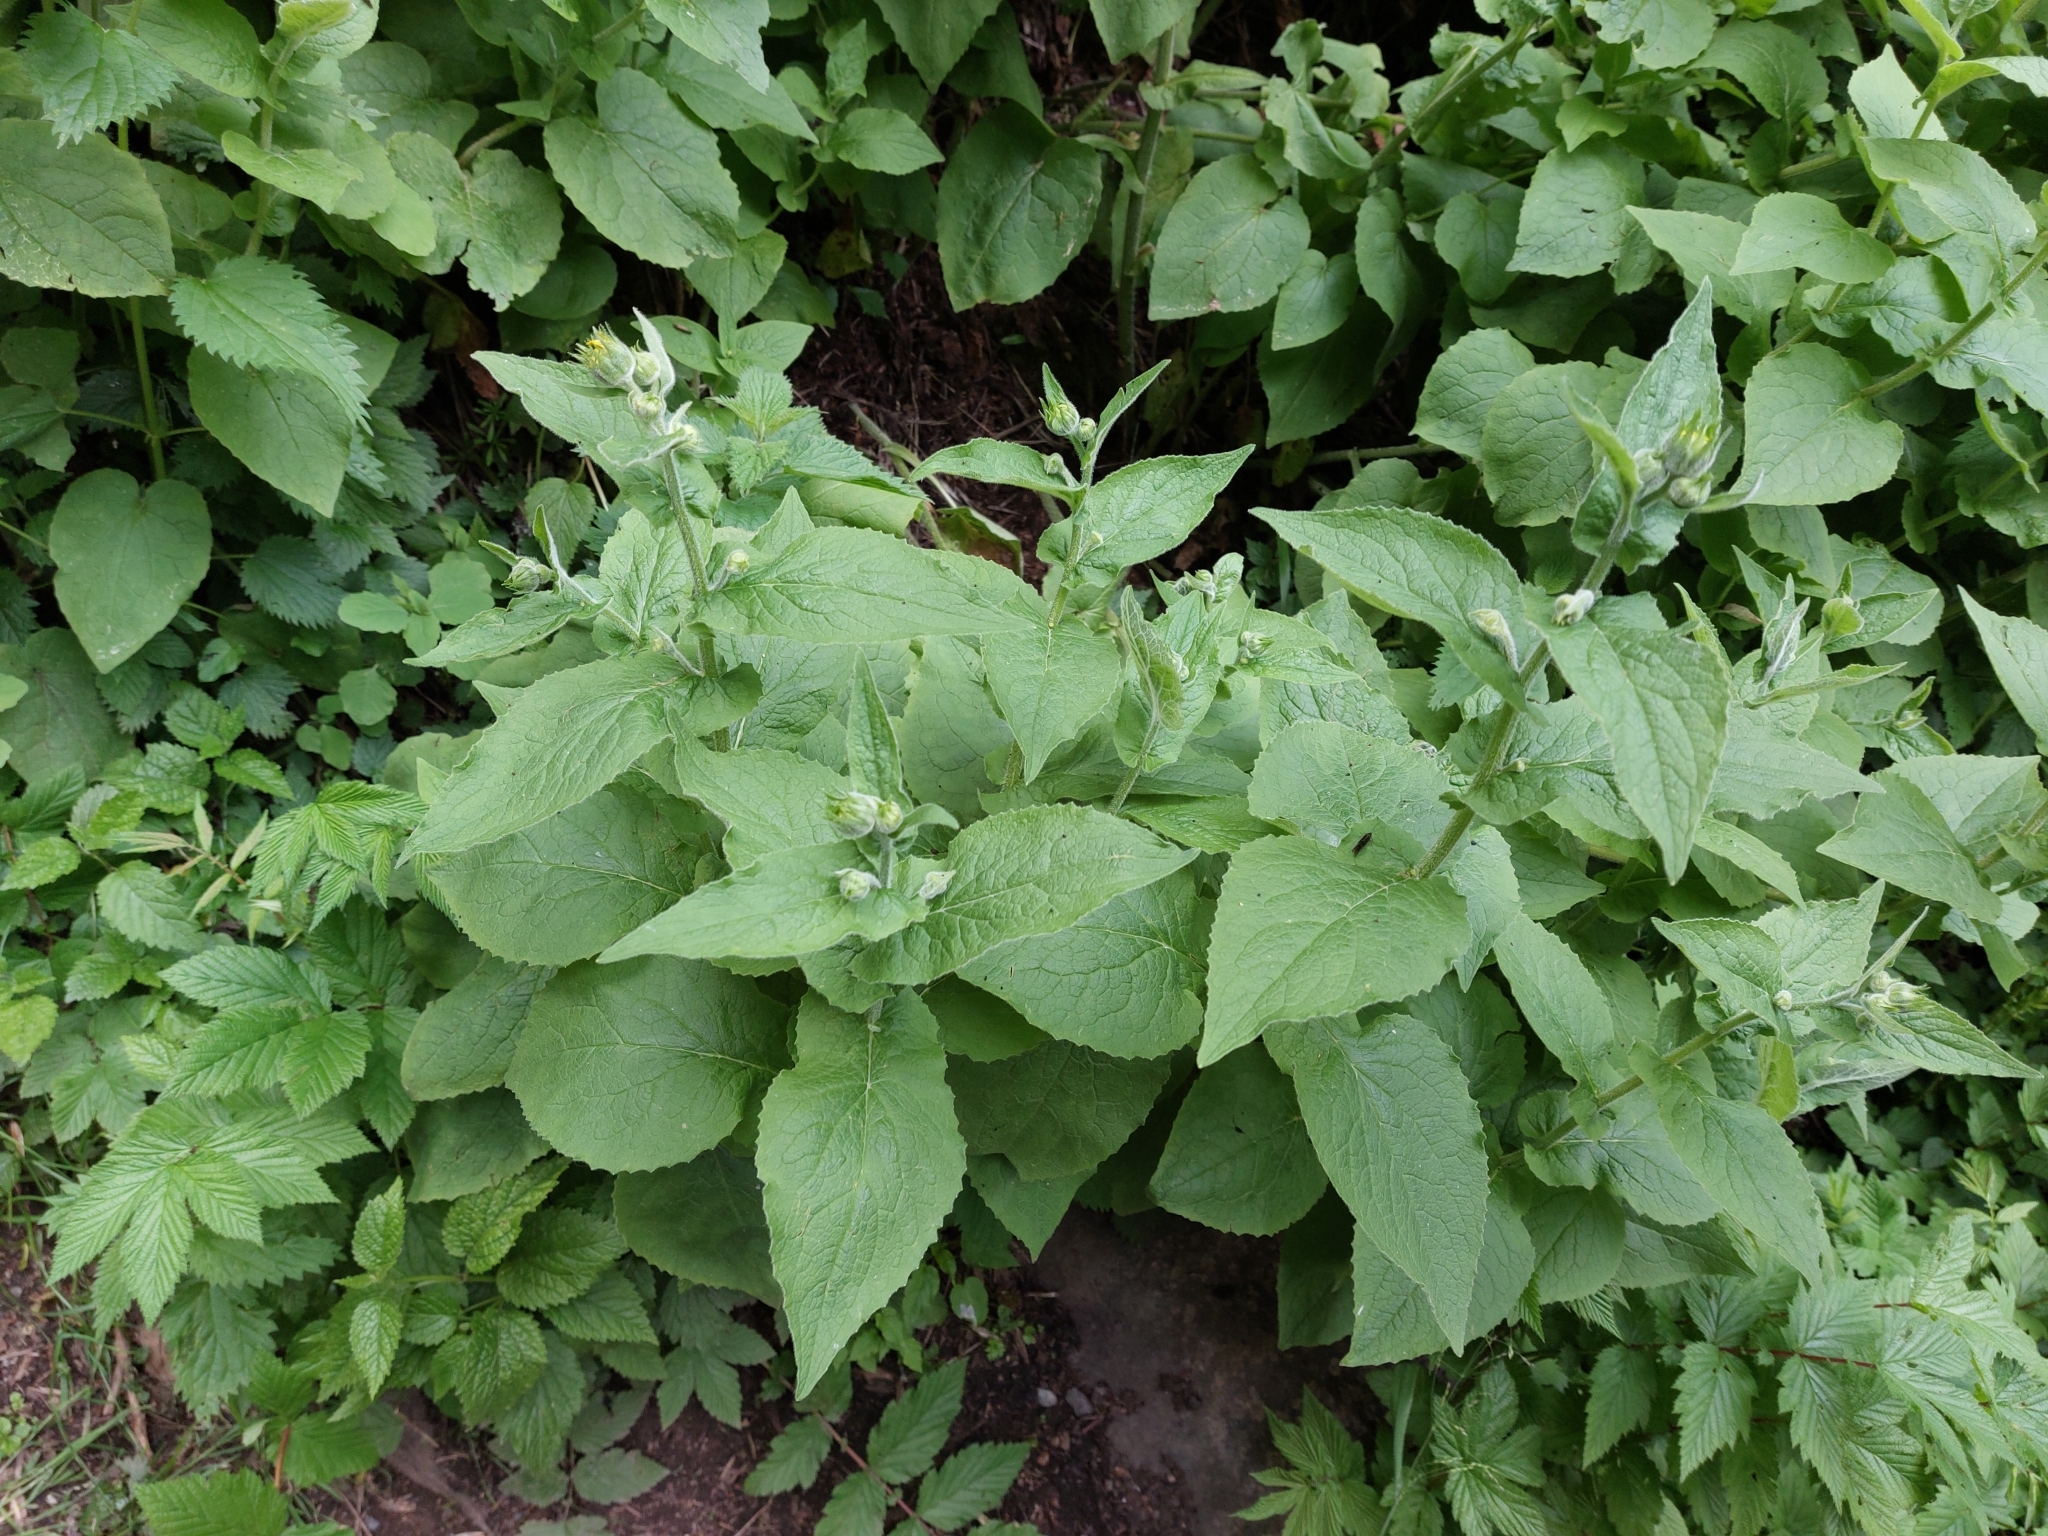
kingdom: Plantae
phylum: Tracheophyta
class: Magnoliopsida
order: Asterales
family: Asteraceae
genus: Doronicum
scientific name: Doronicum austriacum
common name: Austrian leopard's-bane
